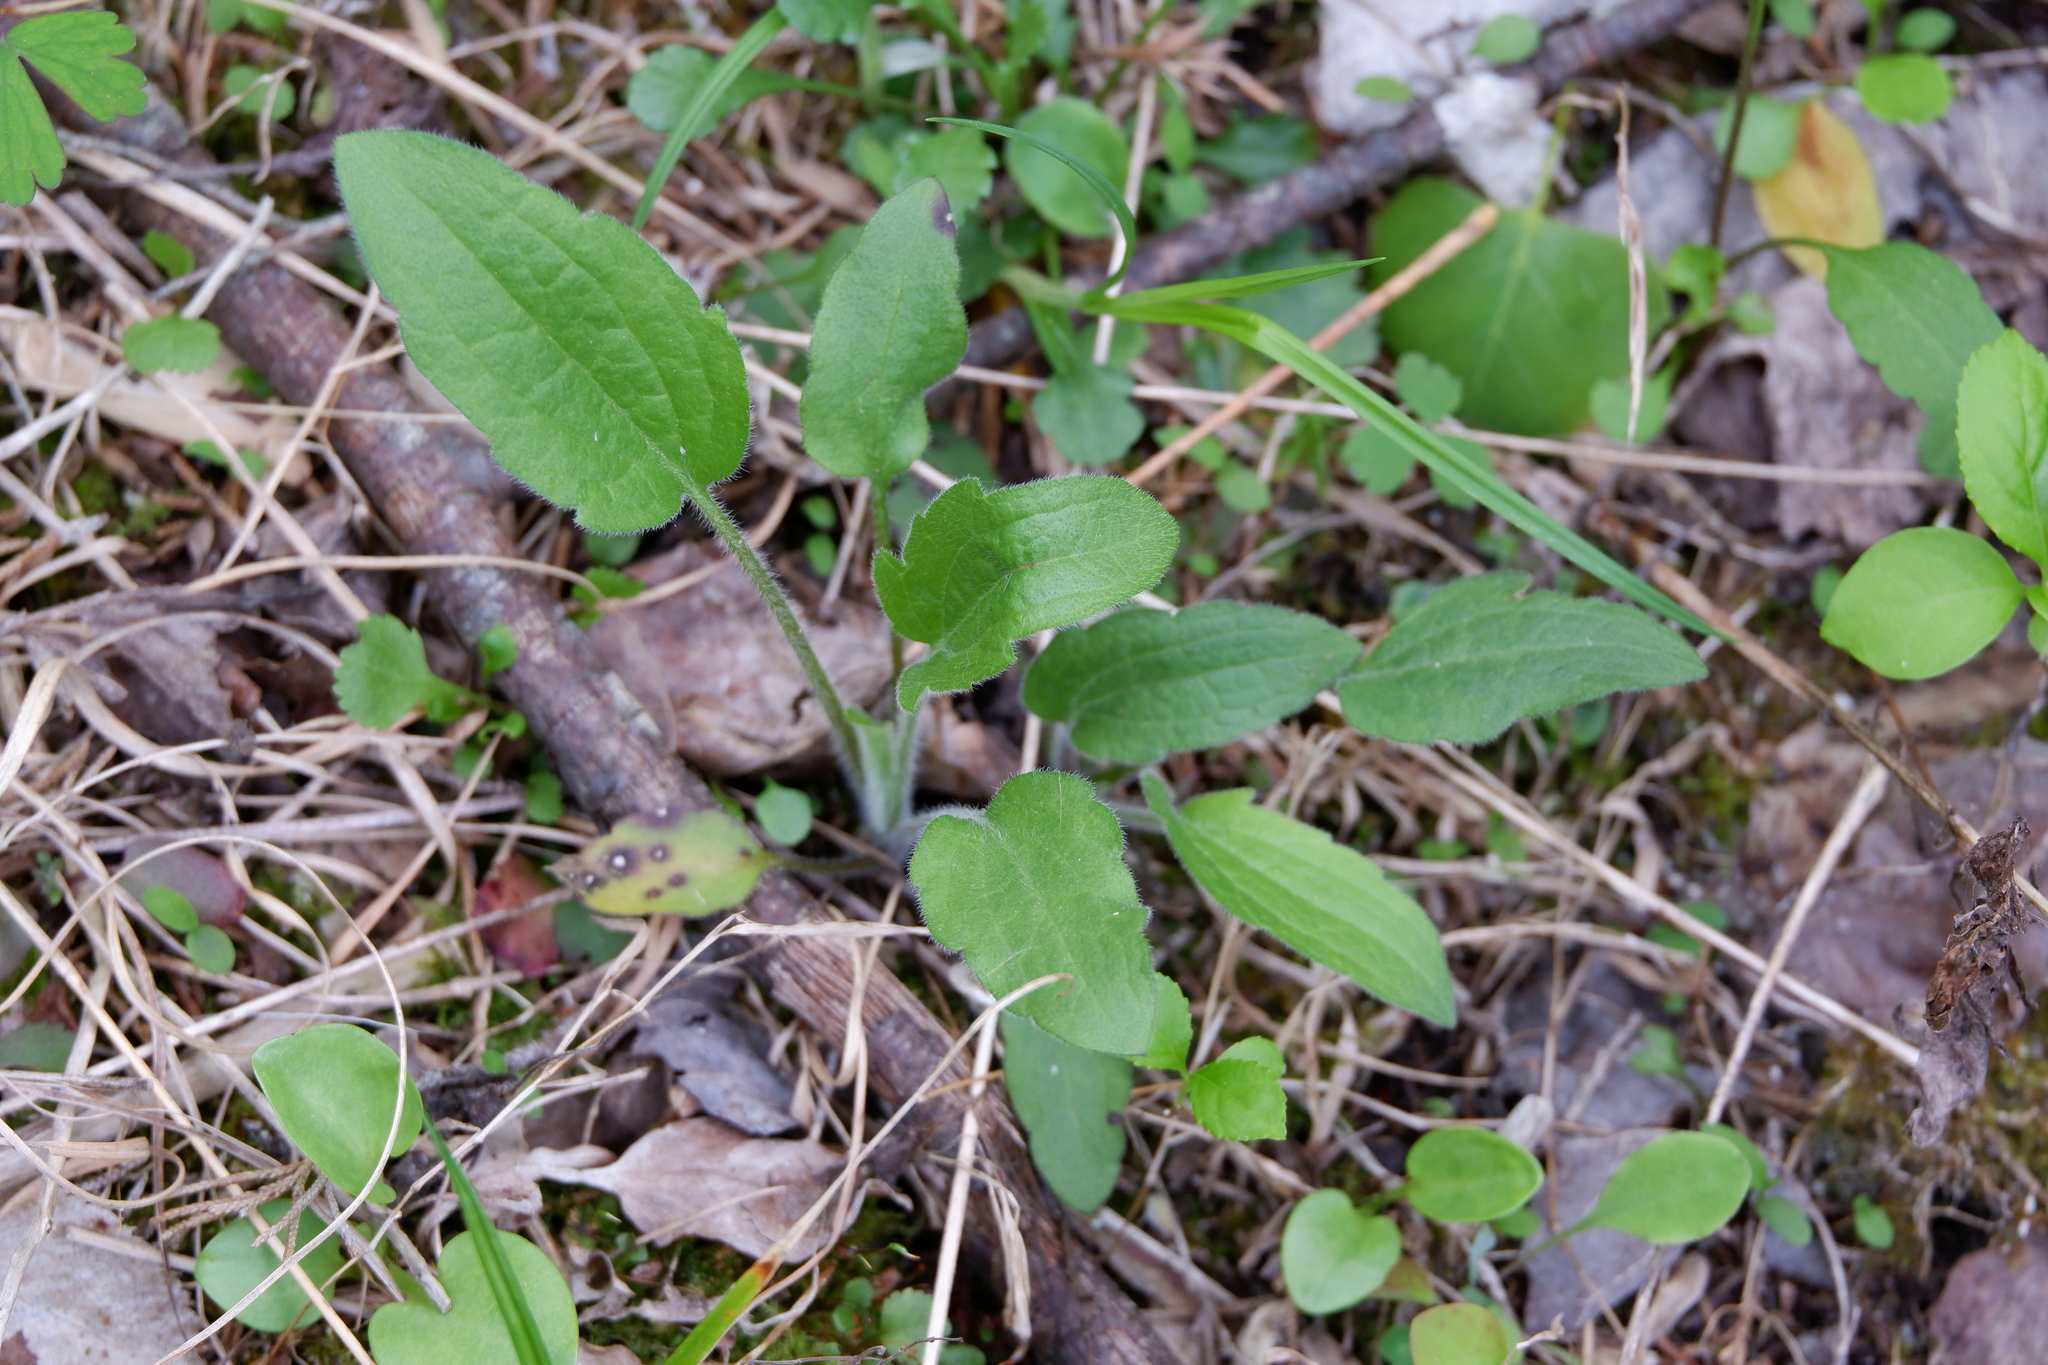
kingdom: Plantae
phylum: Tracheophyta
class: Magnoliopsida
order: Asterales
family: Asteraceae
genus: Rudbeckia
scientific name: Rudbeckia triloba
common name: Thin-leaved coneflower
